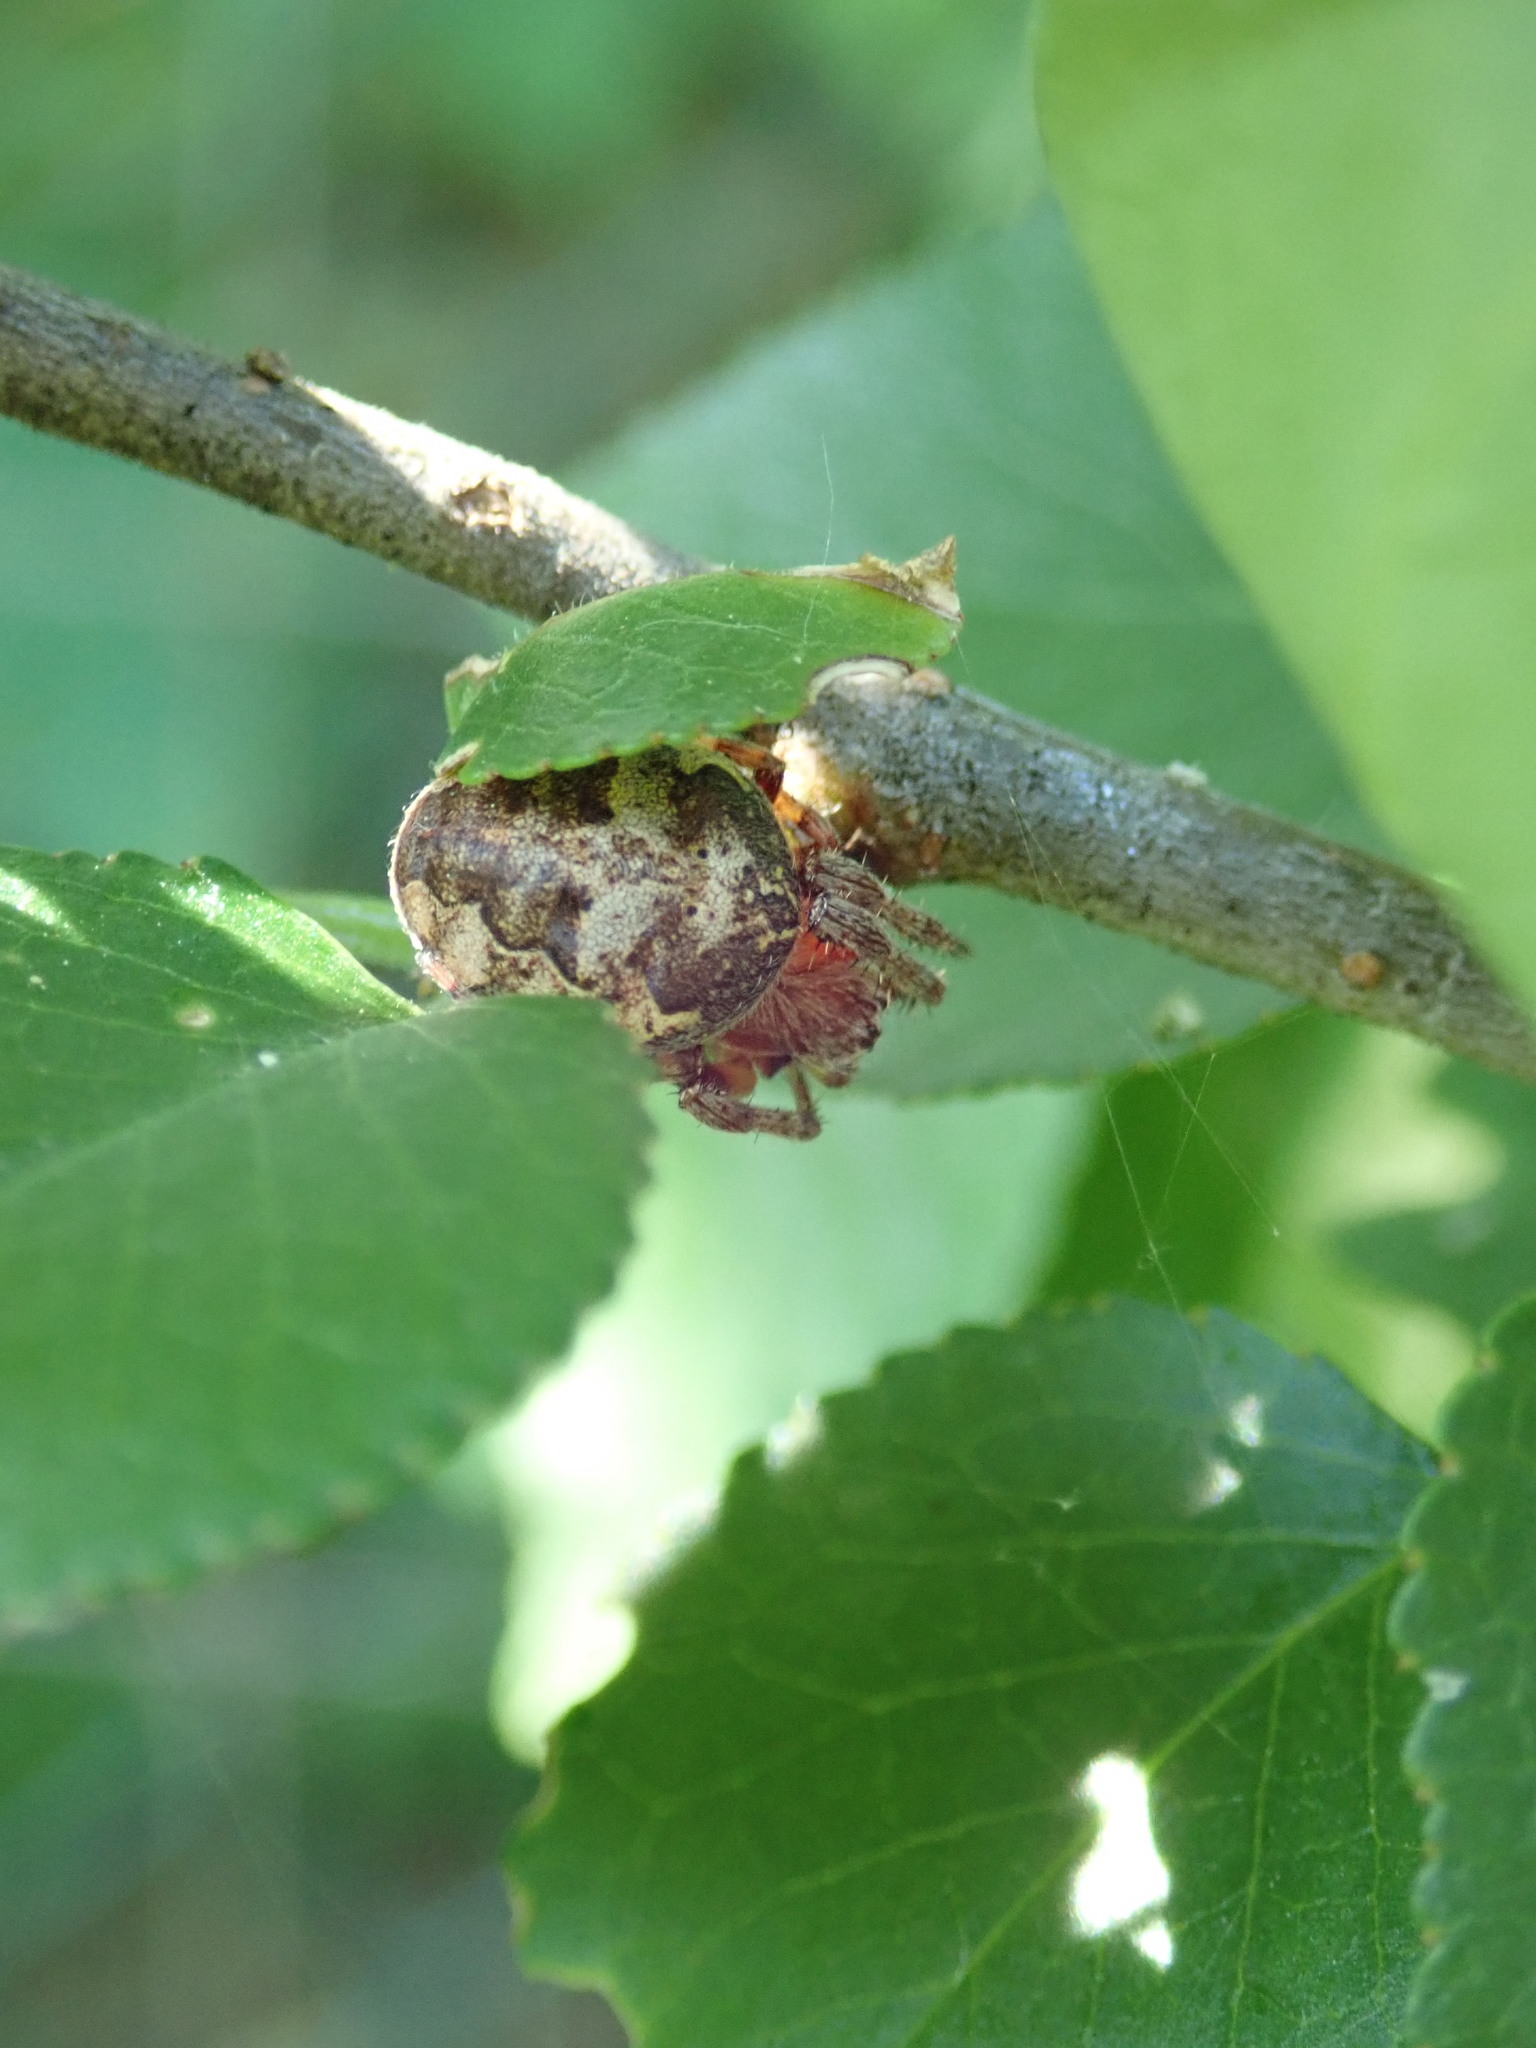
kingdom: Animalia
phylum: Arthropoda
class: Arachnida
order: Araneae
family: Araneidae
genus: Larinioides
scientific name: Larinioides
